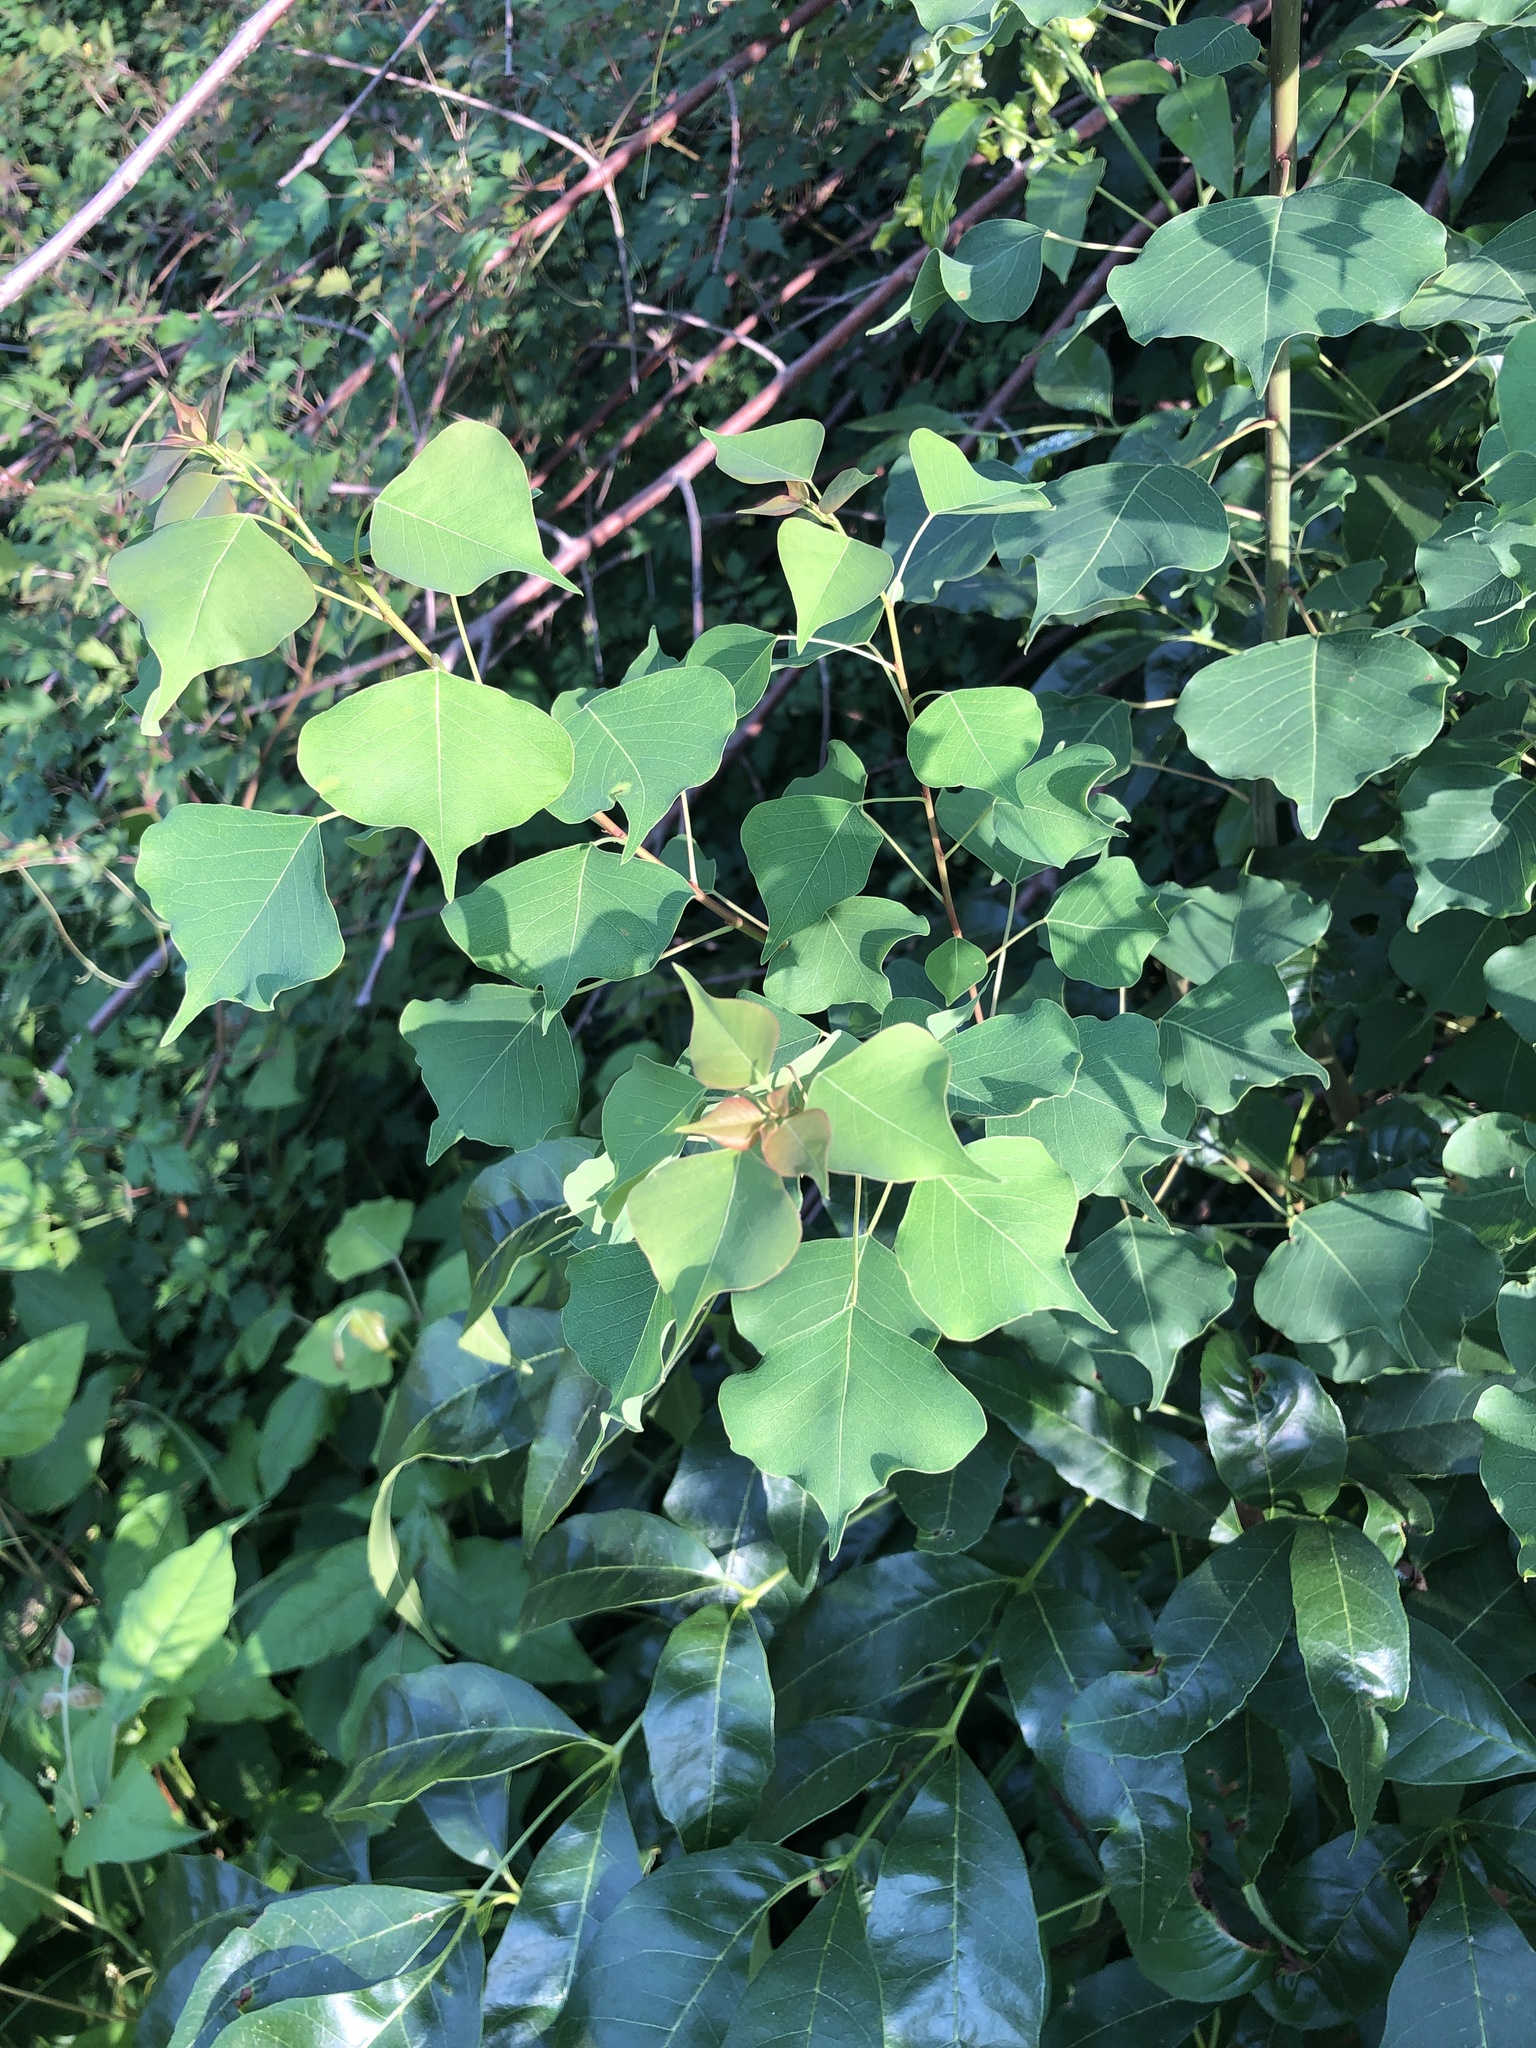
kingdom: Plantae
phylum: Tracheophyta
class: Magnoliopsida
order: Malpighiales
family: Euphorbiaceae
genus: Triadica
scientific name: Triadica sebifera
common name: Chinese tallow
